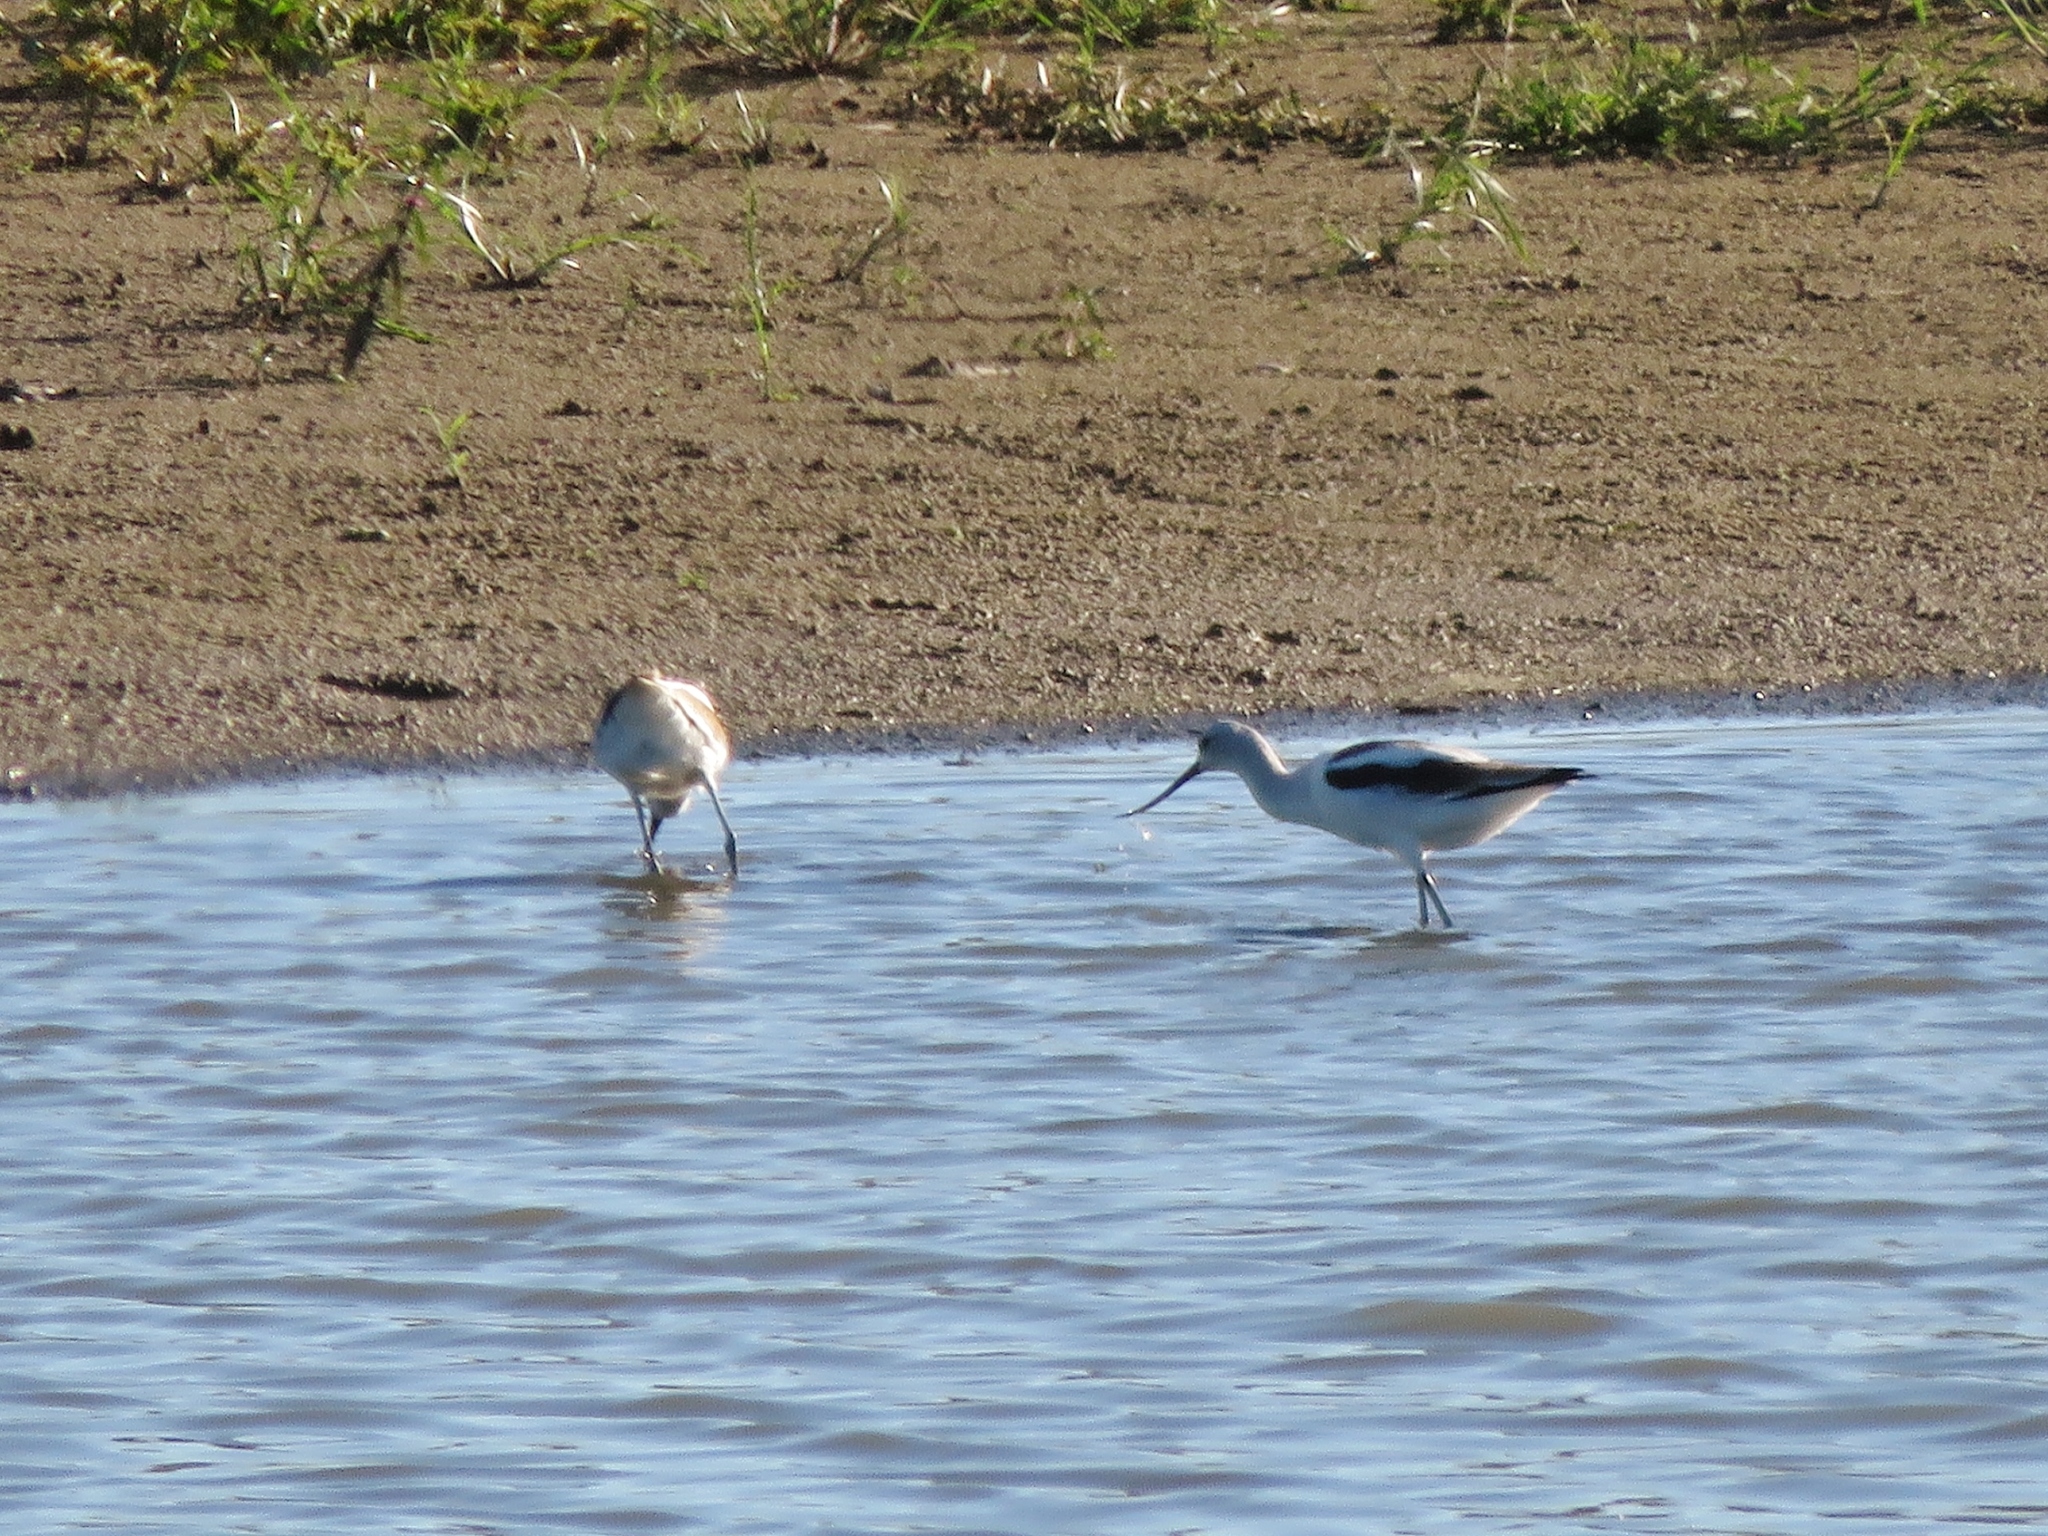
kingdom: Animalia
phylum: Chordata
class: Aves
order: Charadriiformes
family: Recurvirostridae
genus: Recurvirostra
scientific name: Recurvirostra americana
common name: American avocet
